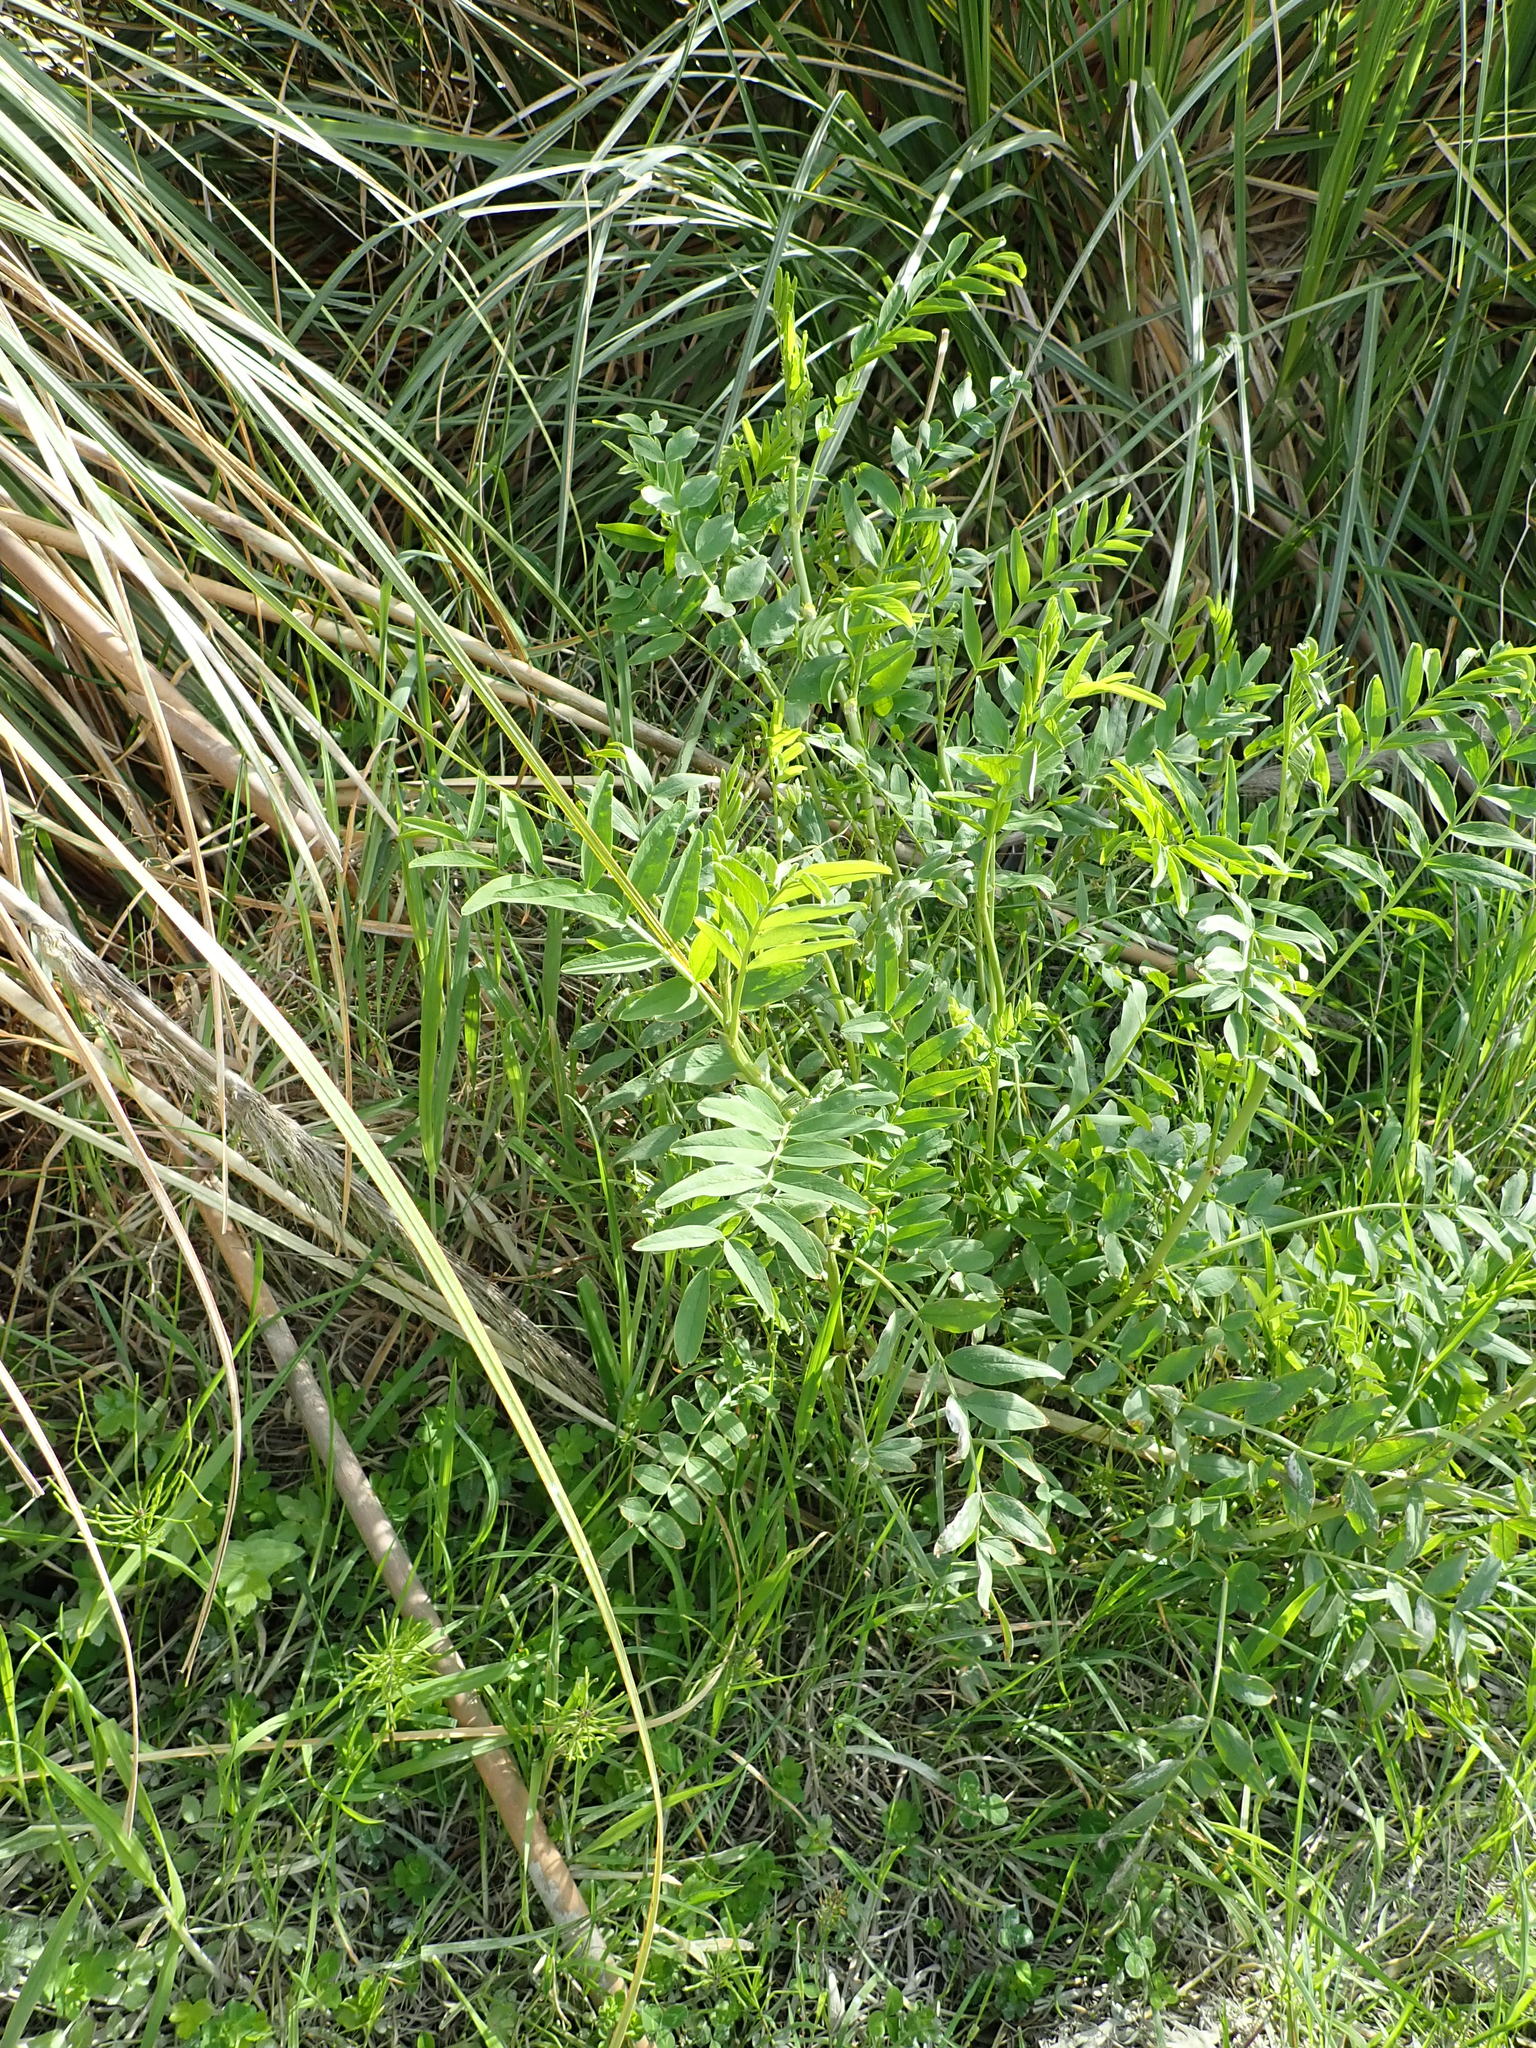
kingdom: Plantae
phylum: Tracheophyta
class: Magnoliopsida
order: Fabales
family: Fabaceae
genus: Galega
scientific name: Galega officinalis
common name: Goat's-rue
